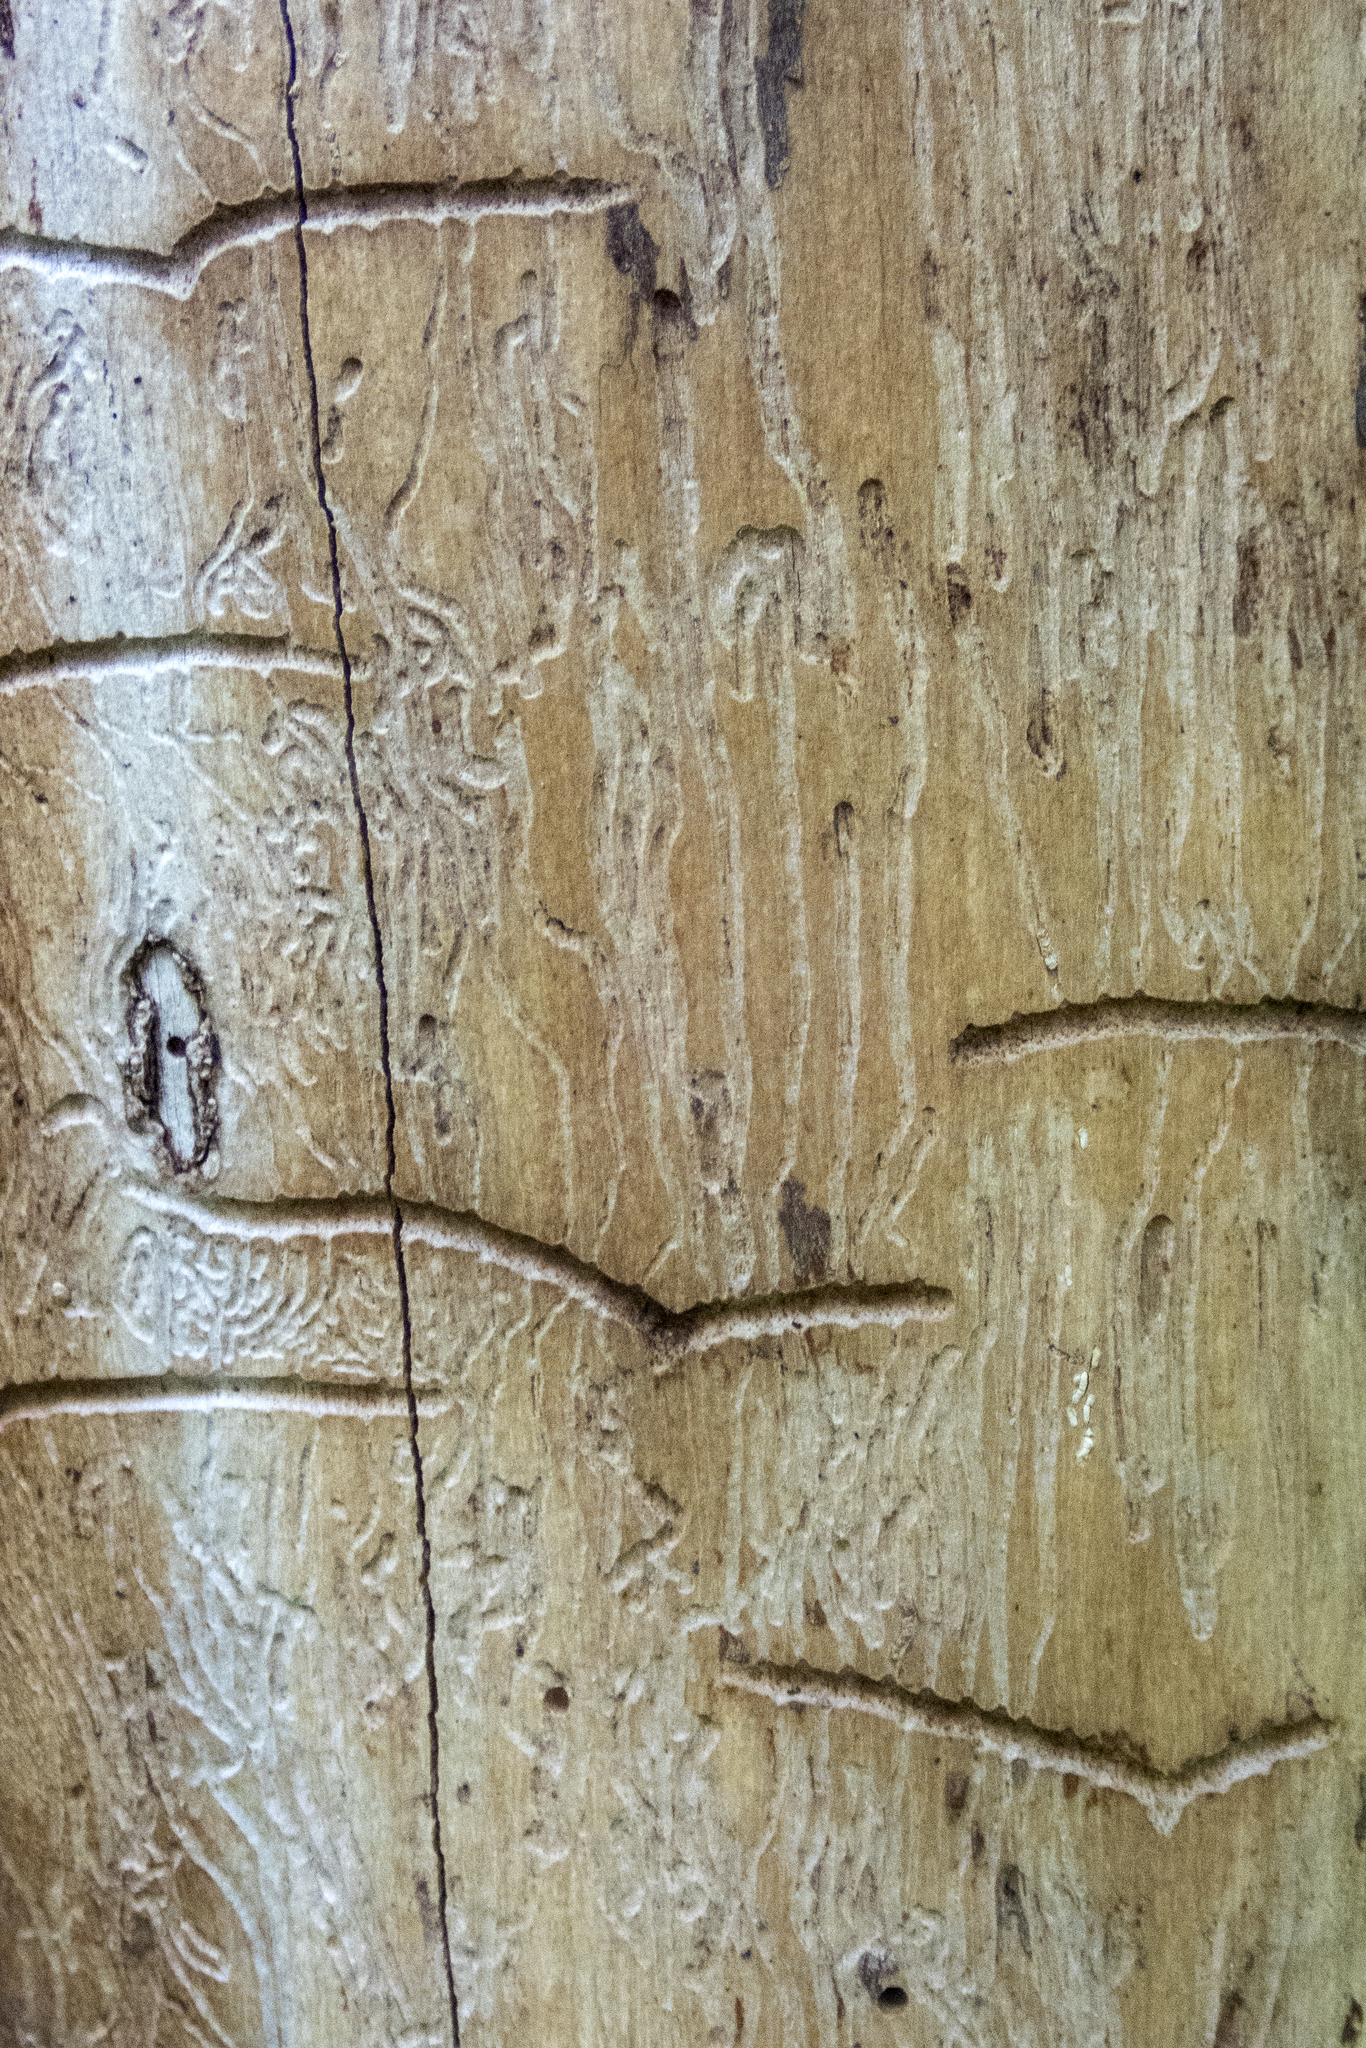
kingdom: Animalia
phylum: Arthropoda
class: Insecta
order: Coleoptera
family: Curculionidae
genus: Hylesinus
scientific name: Hylesinus aculeatus
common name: Easter-ash bark beetle
